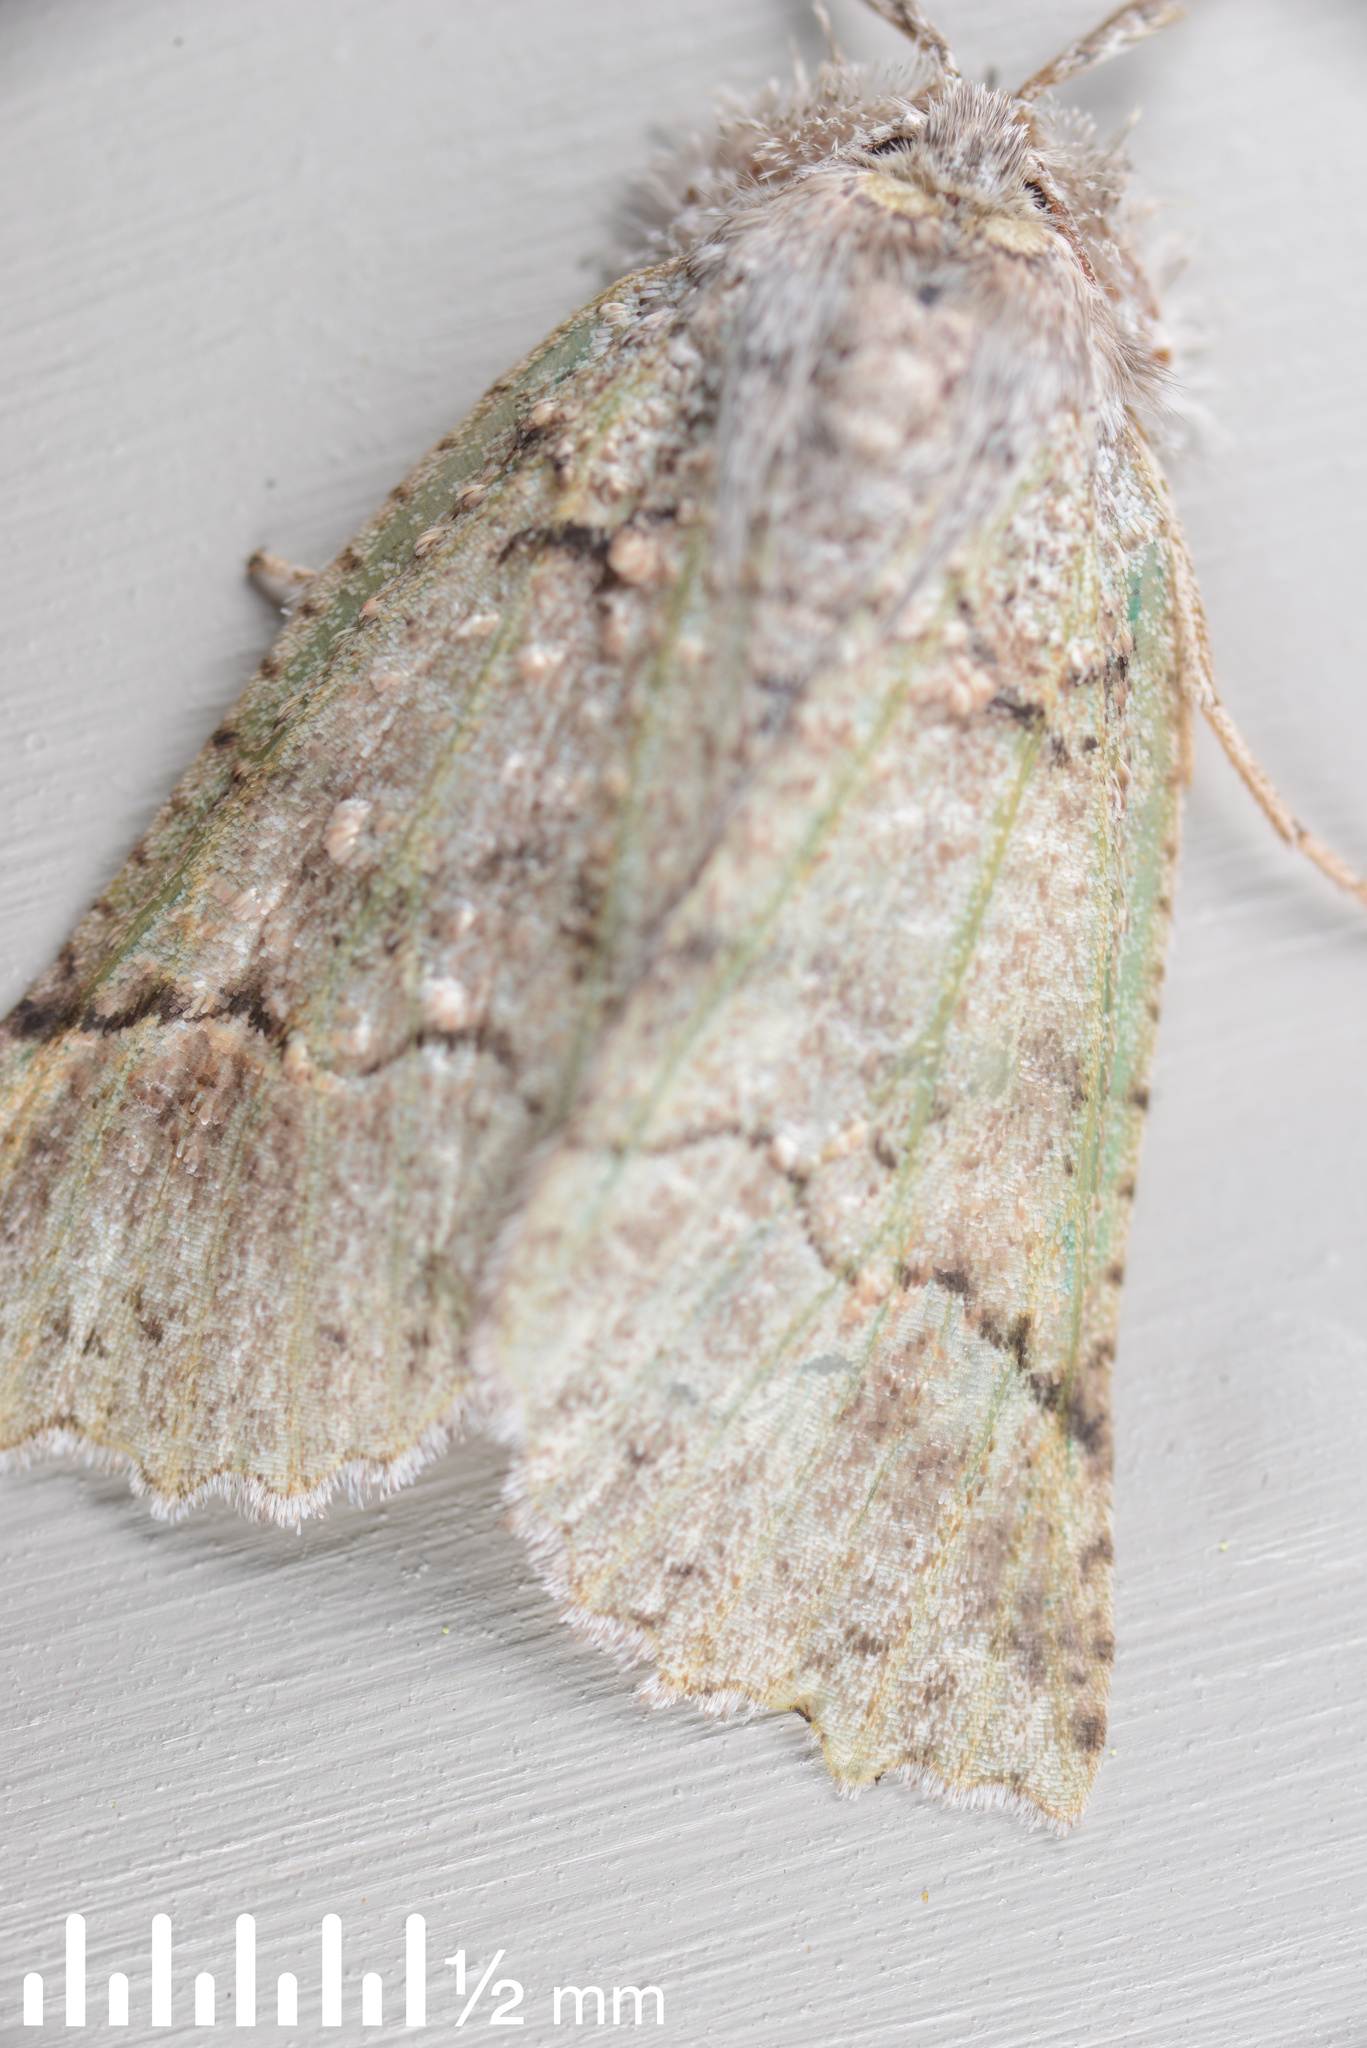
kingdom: Animalia
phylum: Arthropoda
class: Insecta
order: Lepidoptera
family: Geometridae
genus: Declana
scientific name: Declana floccosa
